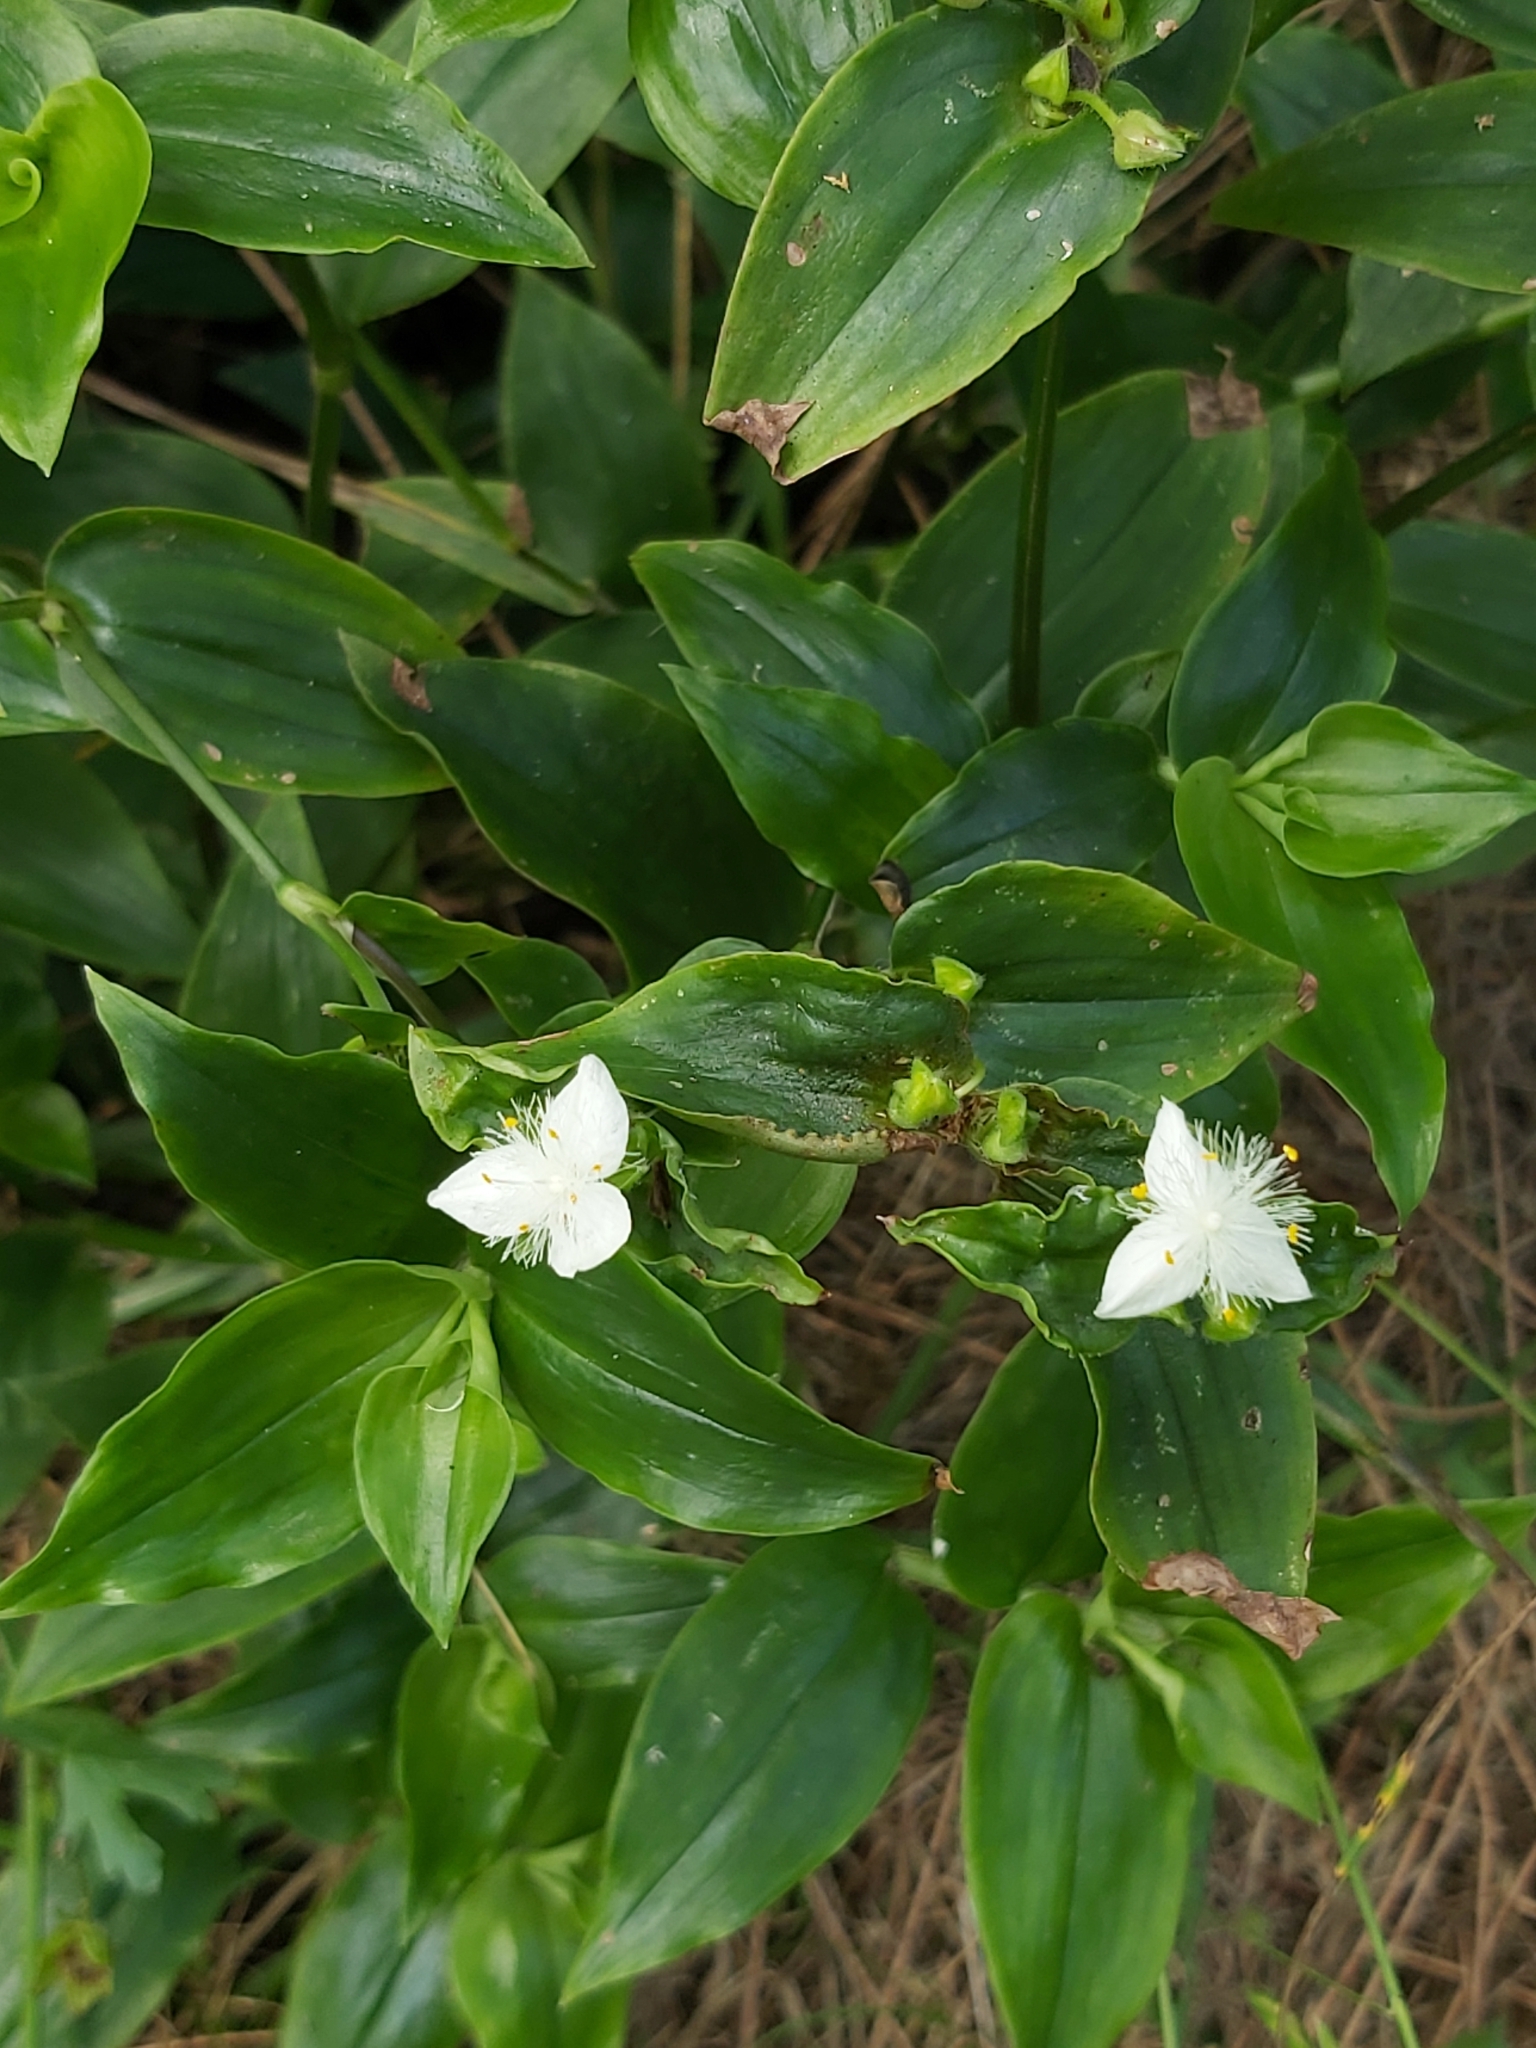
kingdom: Plantae
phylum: Tracheophyta
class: Liliopsida
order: Commelinales
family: Commelinaceae
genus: Tradescantia
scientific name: Tradescantia fluminensis
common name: Wandering-jew
